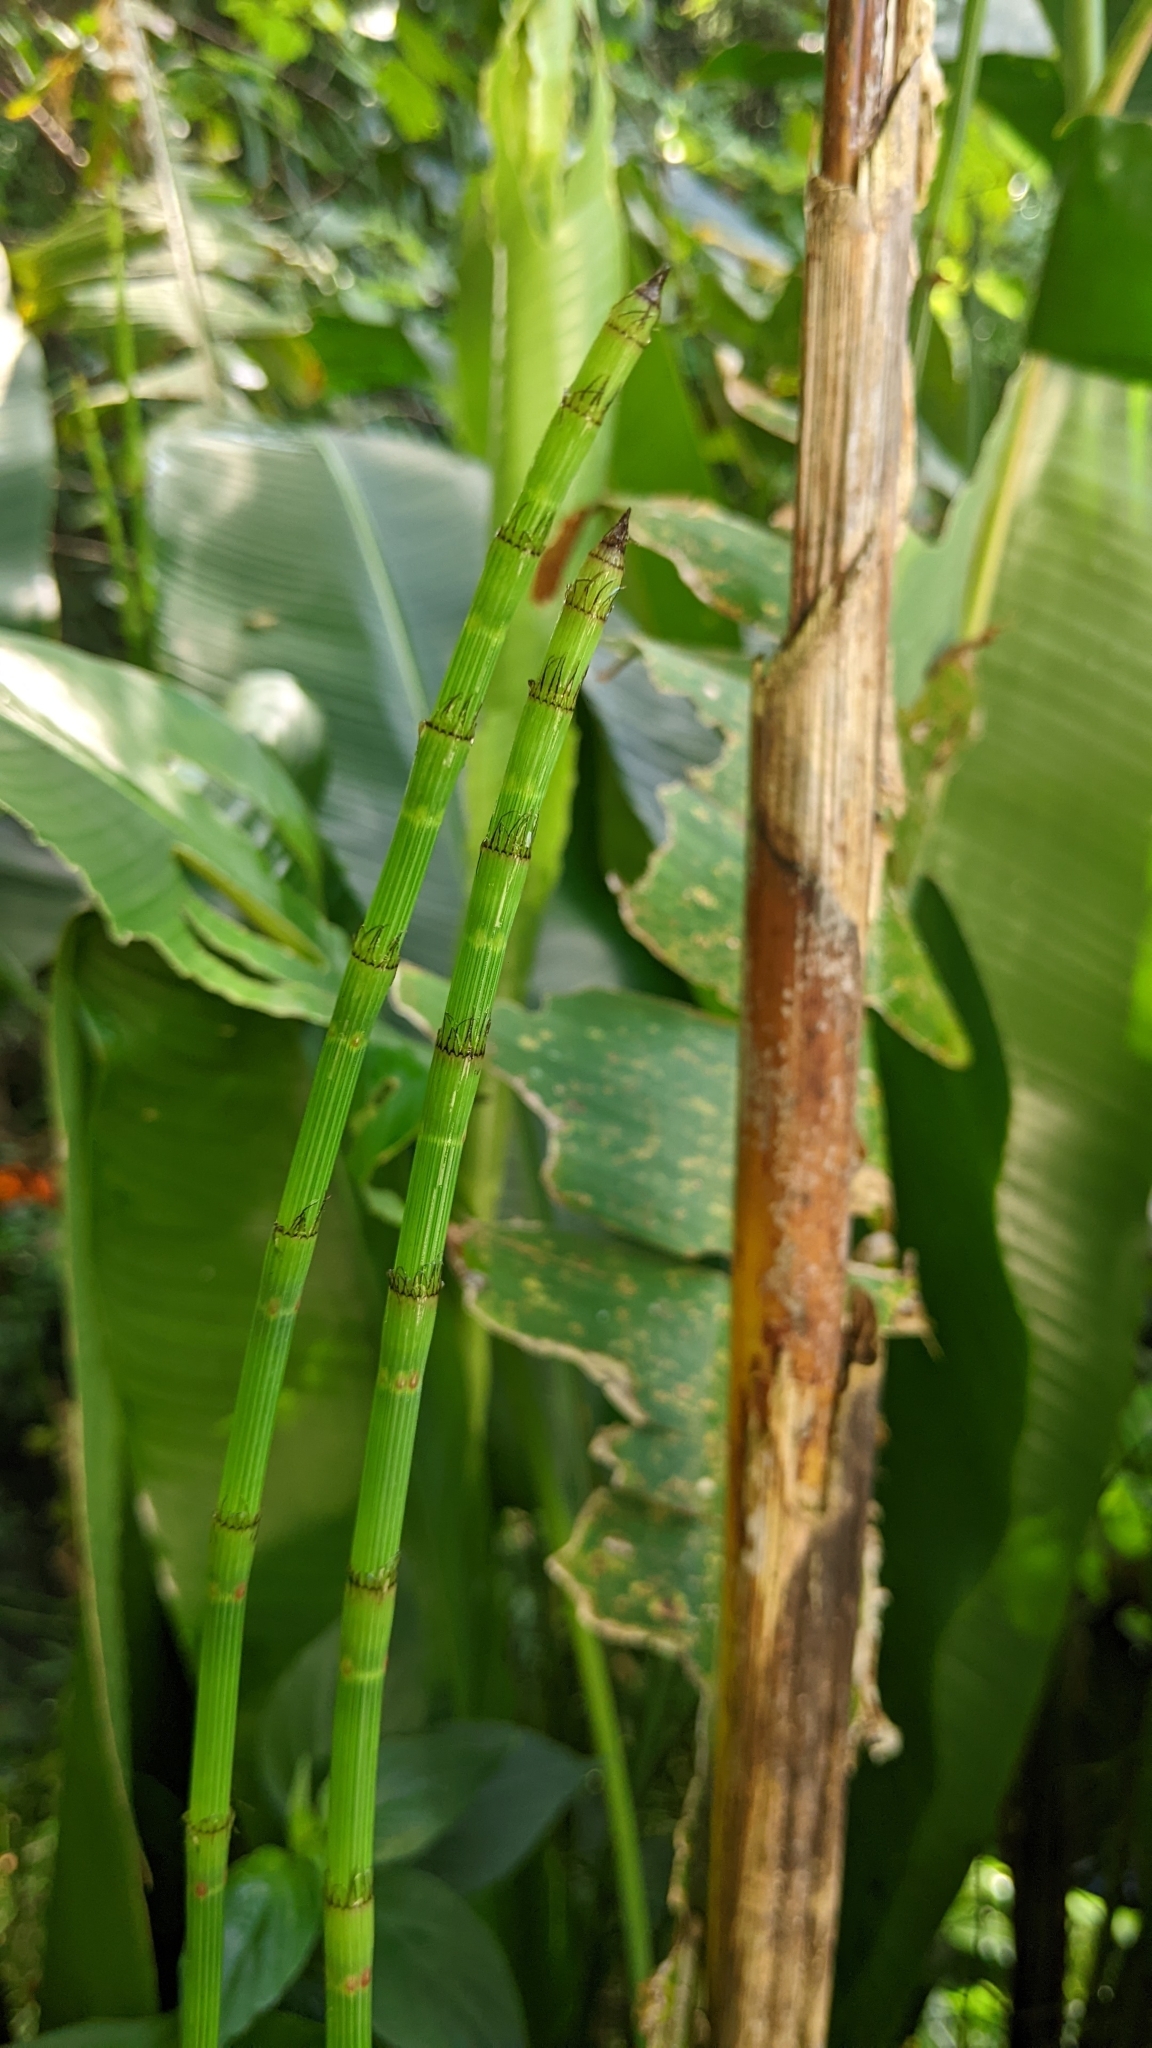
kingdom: Plantae
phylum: Tracheophyta
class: Polypodiopsida
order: Equisetales
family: Equisetaceae
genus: Equisetum
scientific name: Equisetum ramosissimum
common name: Branched horsetail
